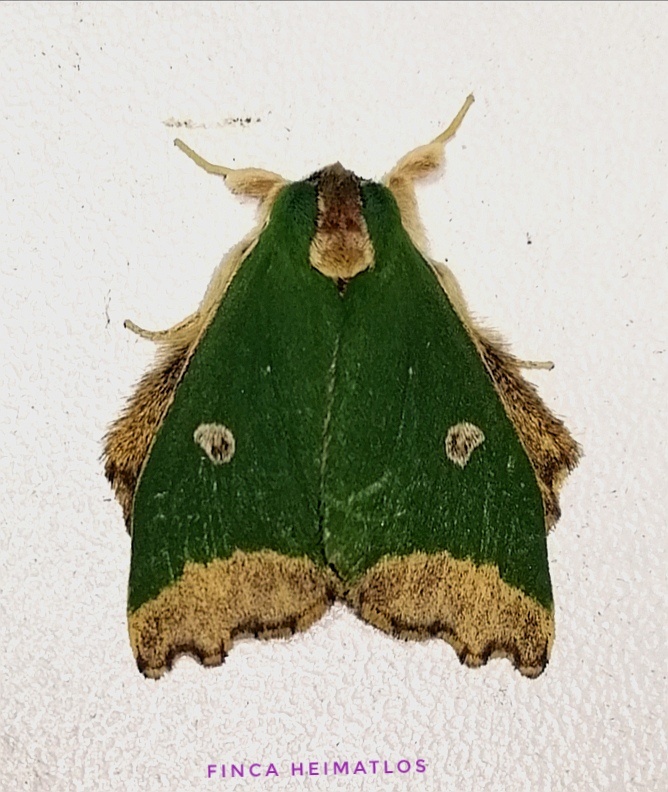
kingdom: Animalia
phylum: Arthropoda
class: Insecta
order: Lepidoptera
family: Notodontidae
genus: Rosema
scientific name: Rosema epigena
